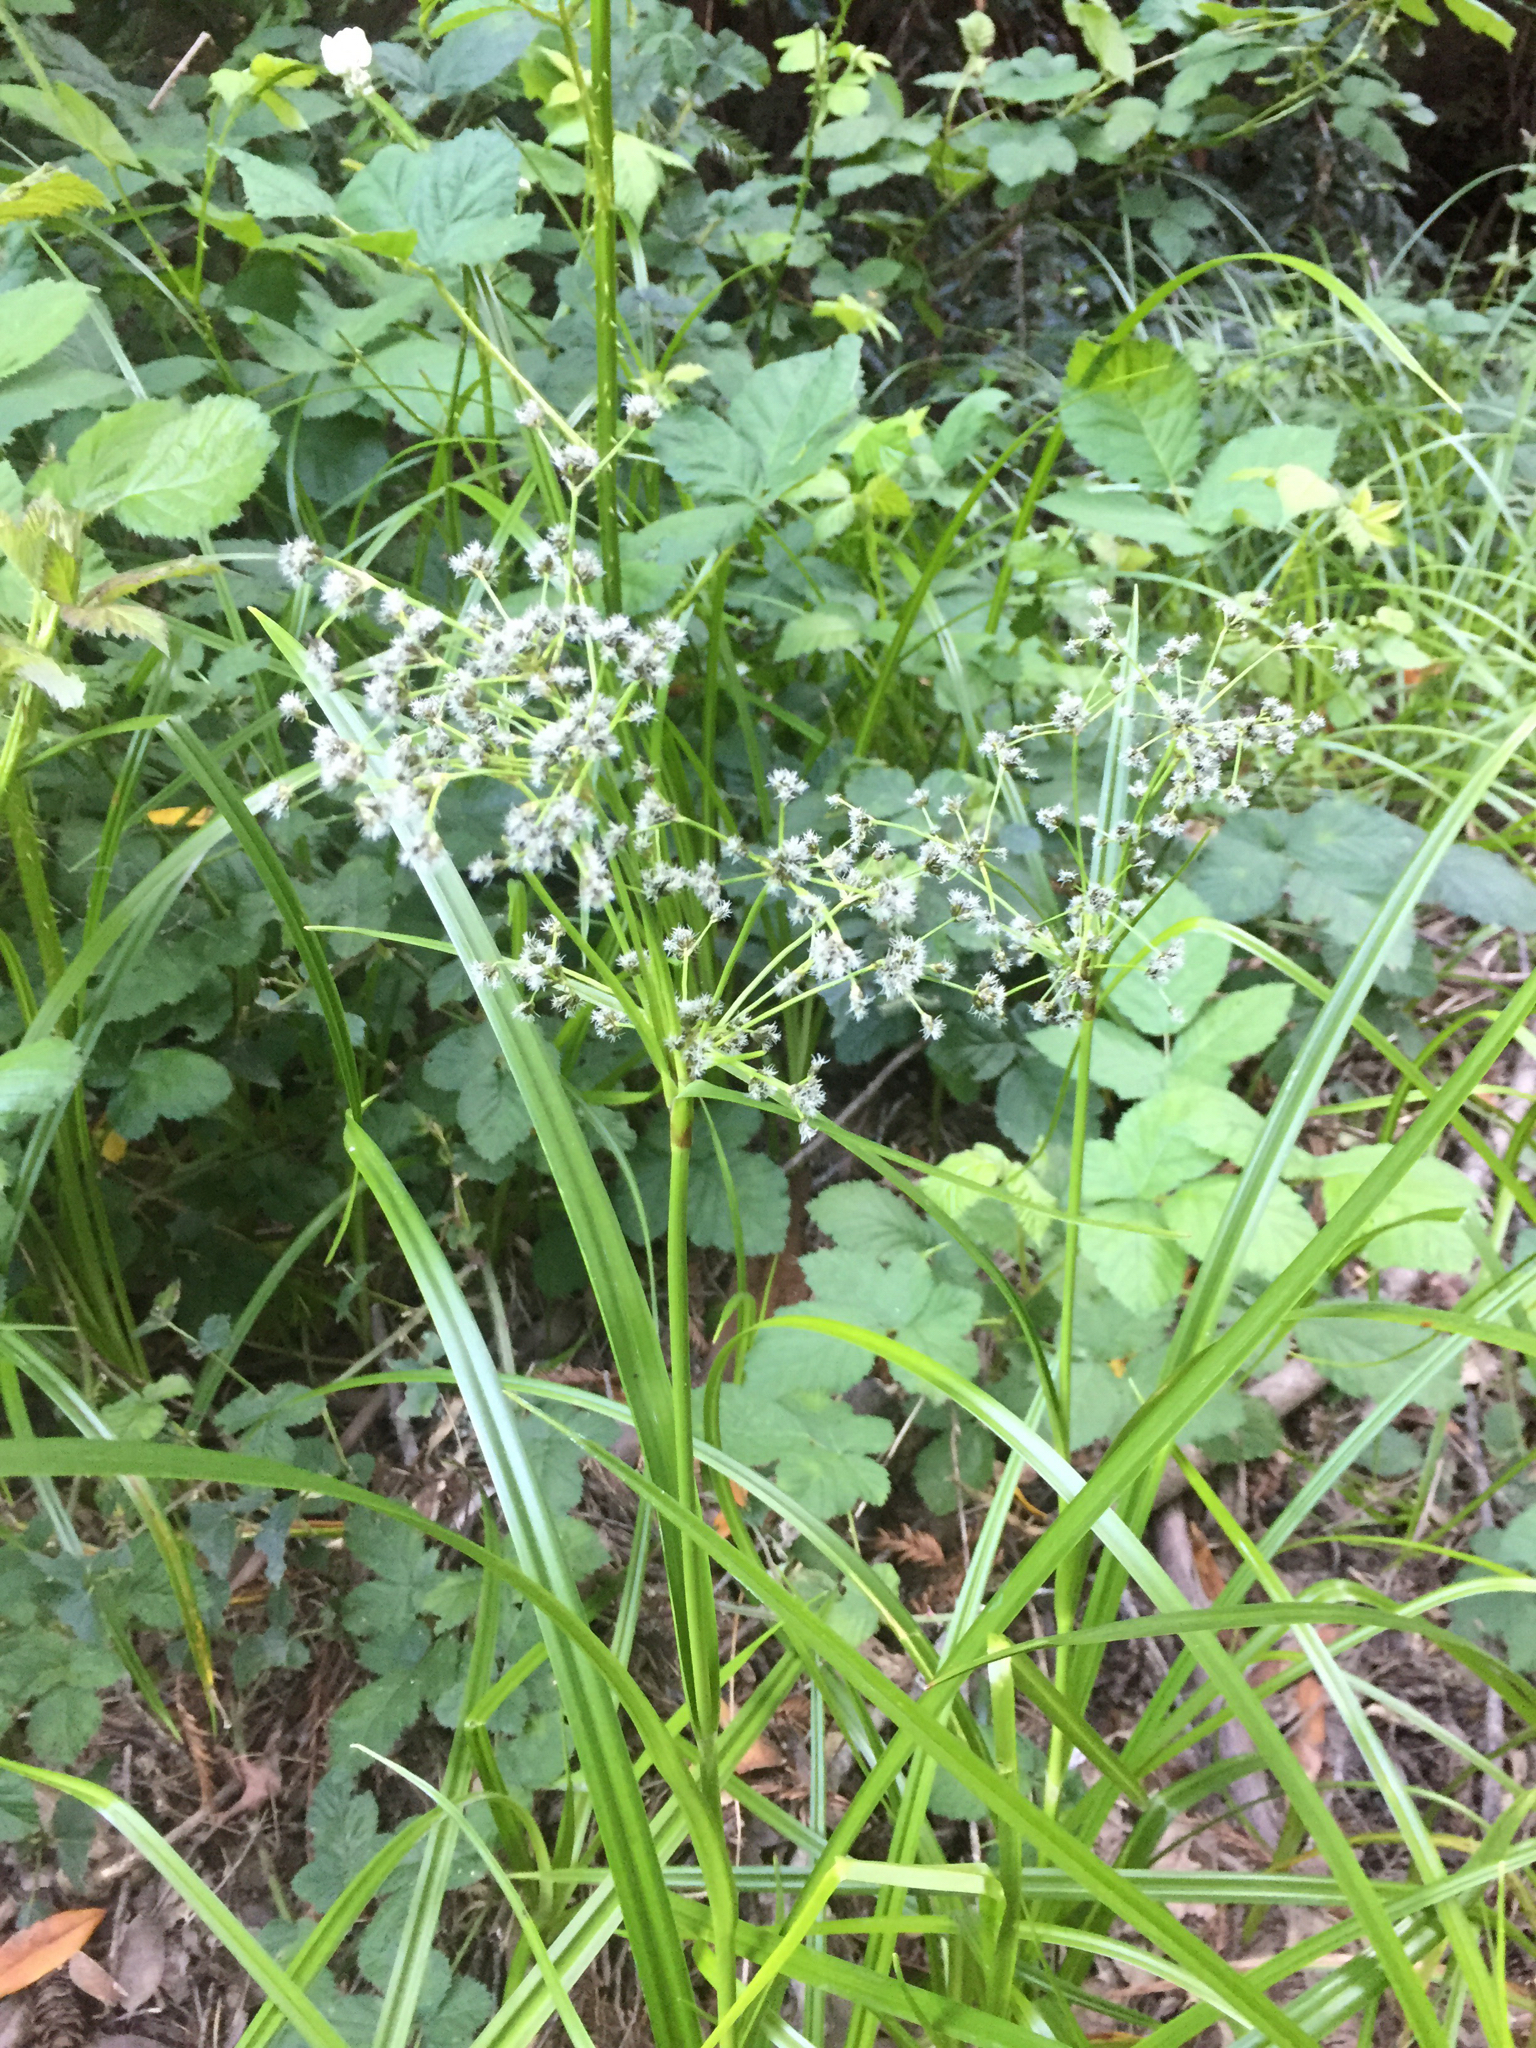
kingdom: Plantae
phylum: Tracheophyta
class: Liliopsida
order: Poales
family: Cyperaceae
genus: Scirpus
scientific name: Scirpus microcarpus
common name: Panicled bulrush
